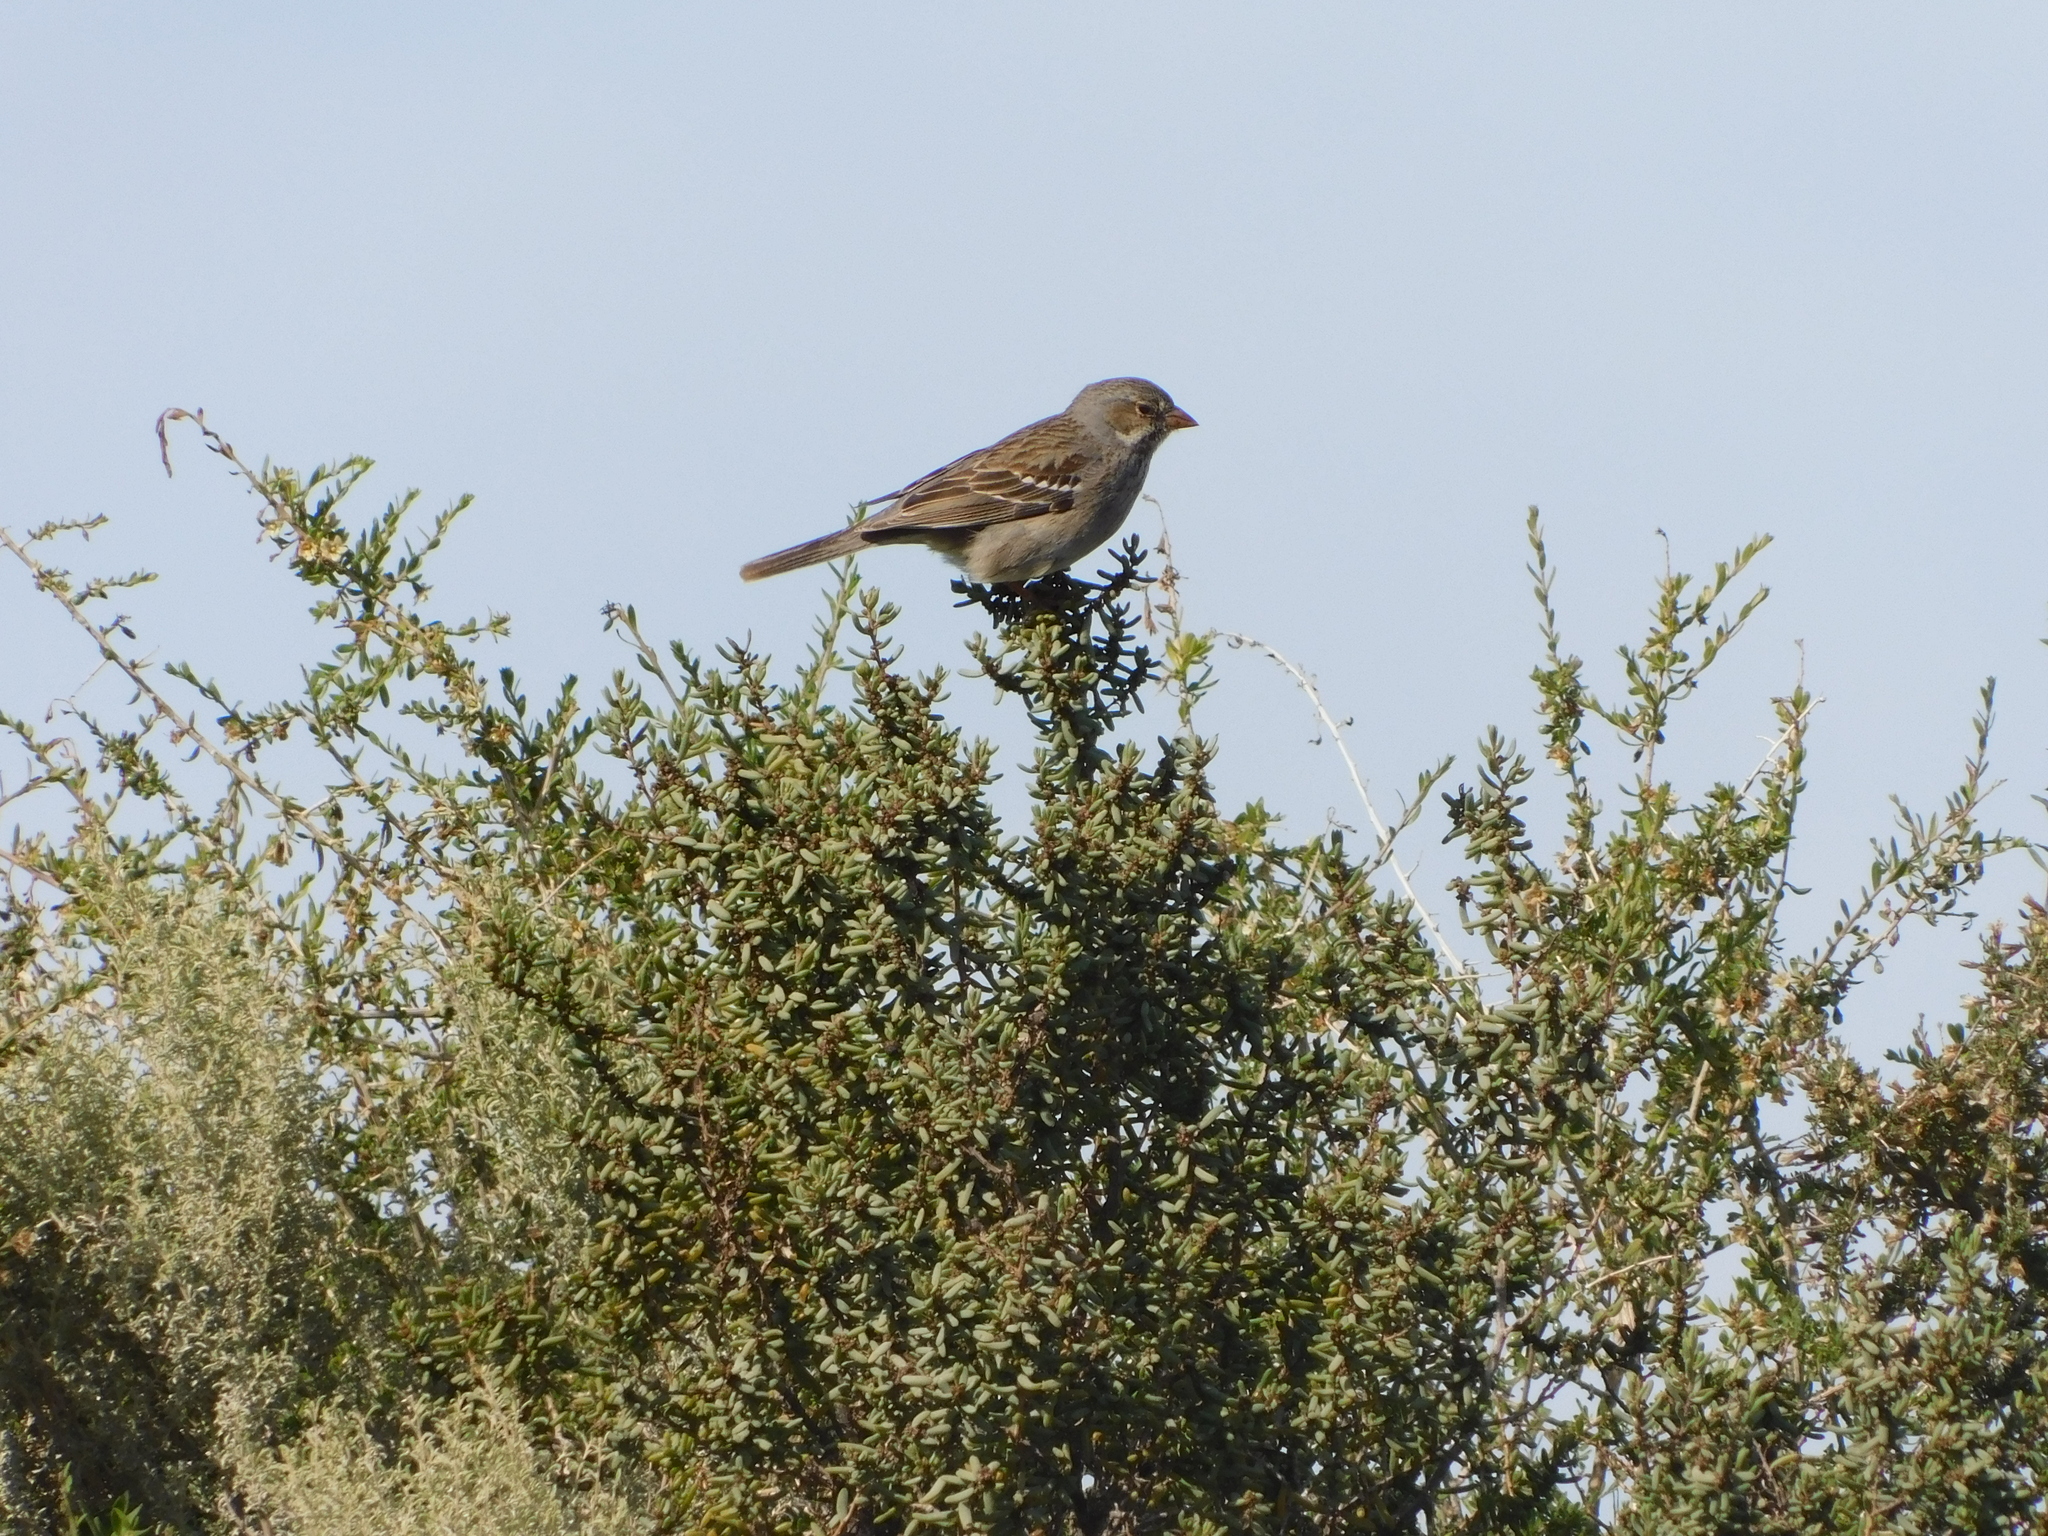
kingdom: Animalia
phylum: Chordata
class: Aves
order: Passeriformes
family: Thraupidae
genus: Rhopospina
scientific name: Rhopospina fruticeti
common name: Mourning sierra finch
